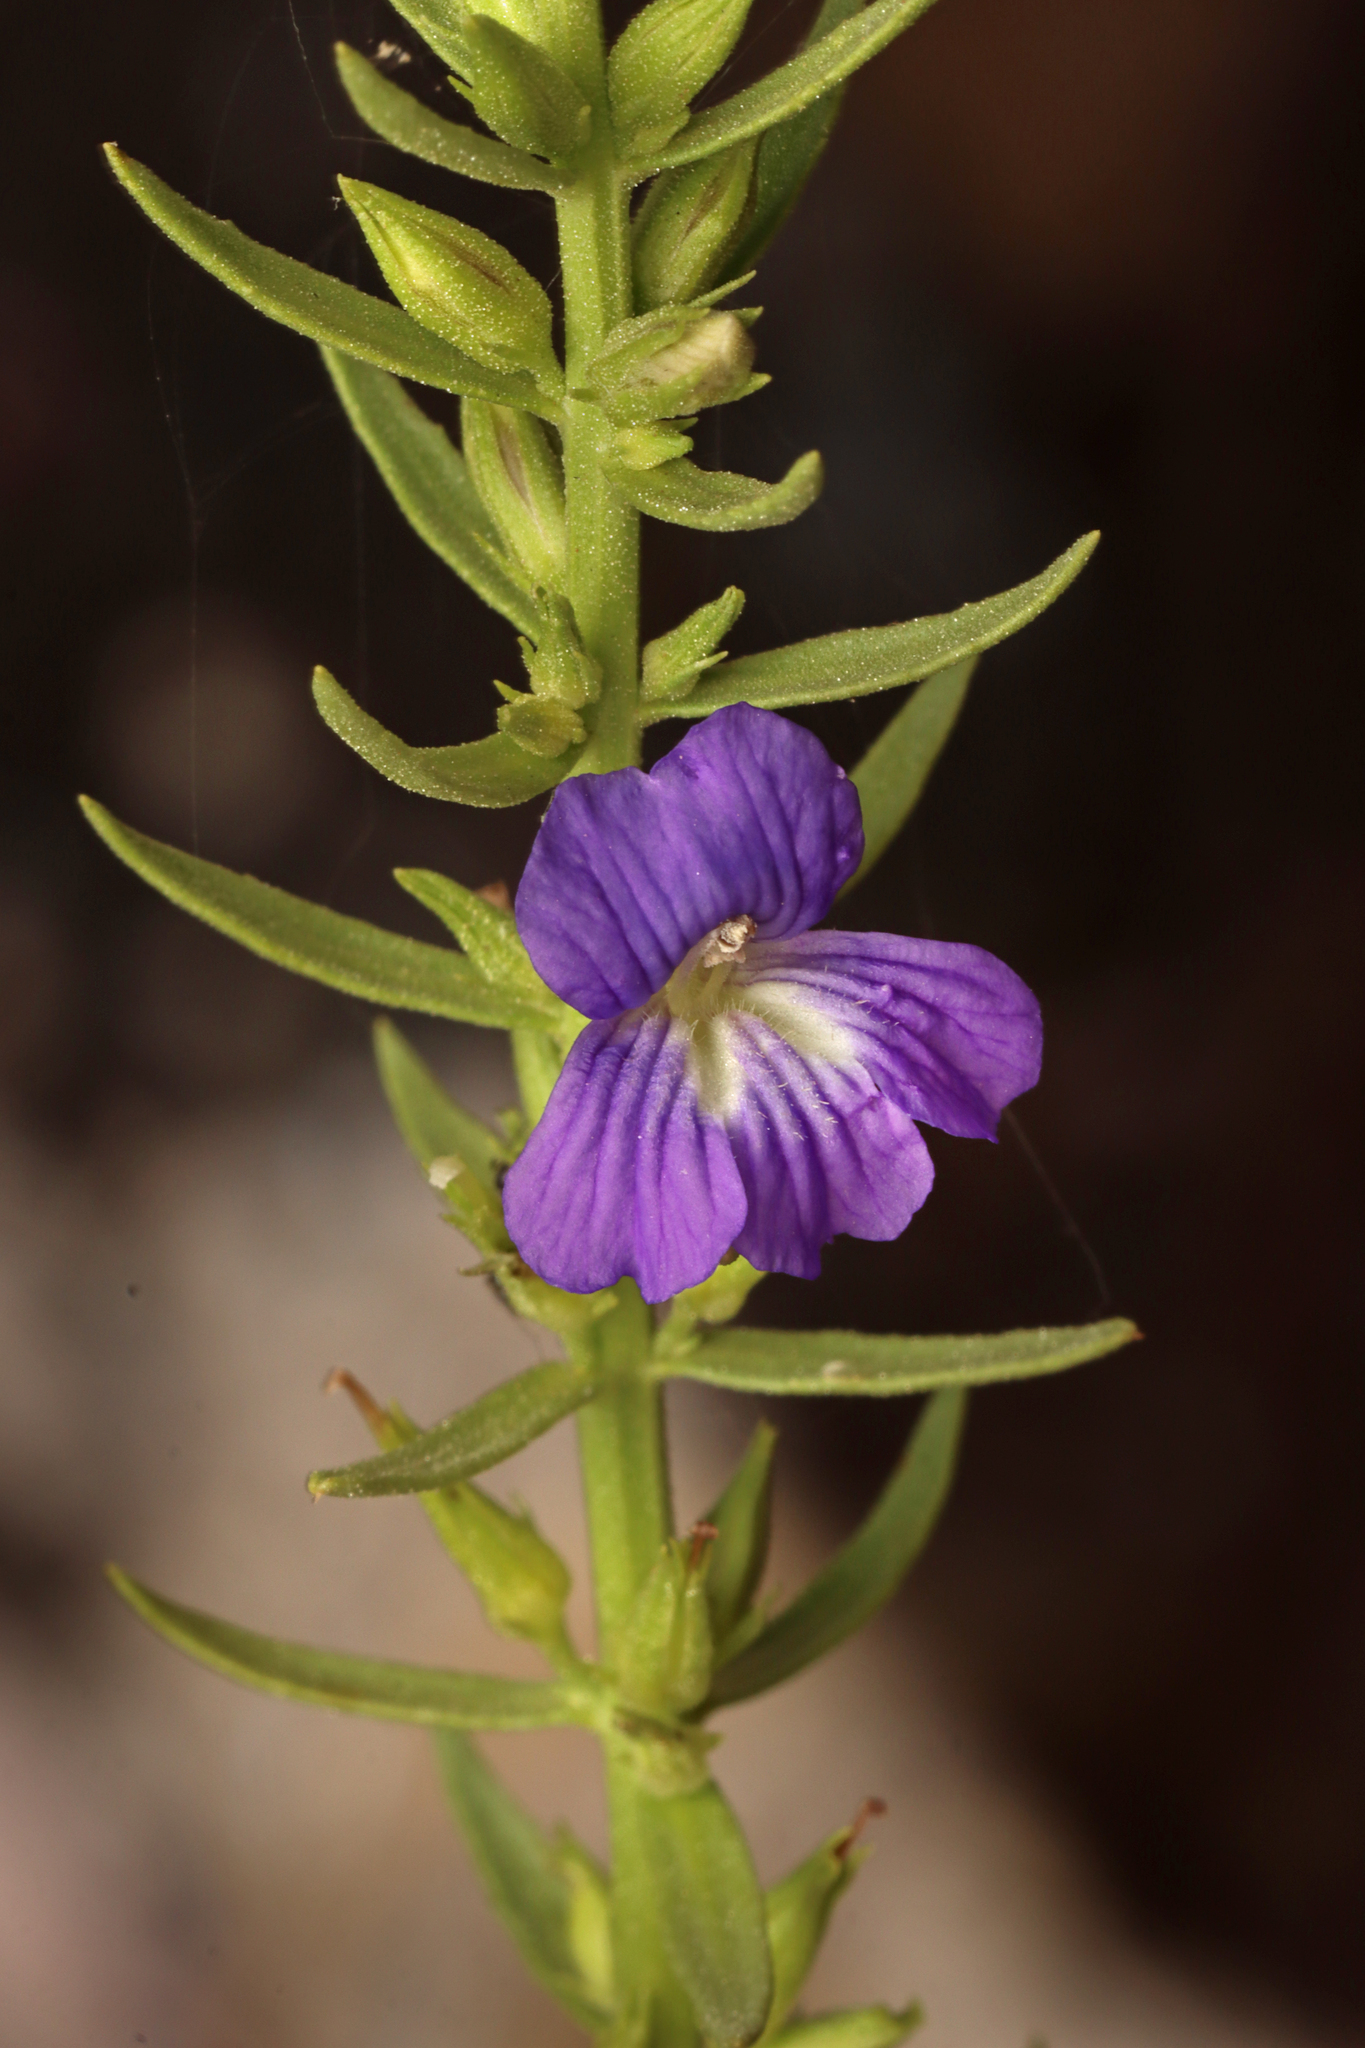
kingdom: Plantae
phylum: Tracheophyta
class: Magnoliopsida
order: Lamiales
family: Plantaginaceae
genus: Stemodia
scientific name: Stemodia florulenta
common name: Bluerod
